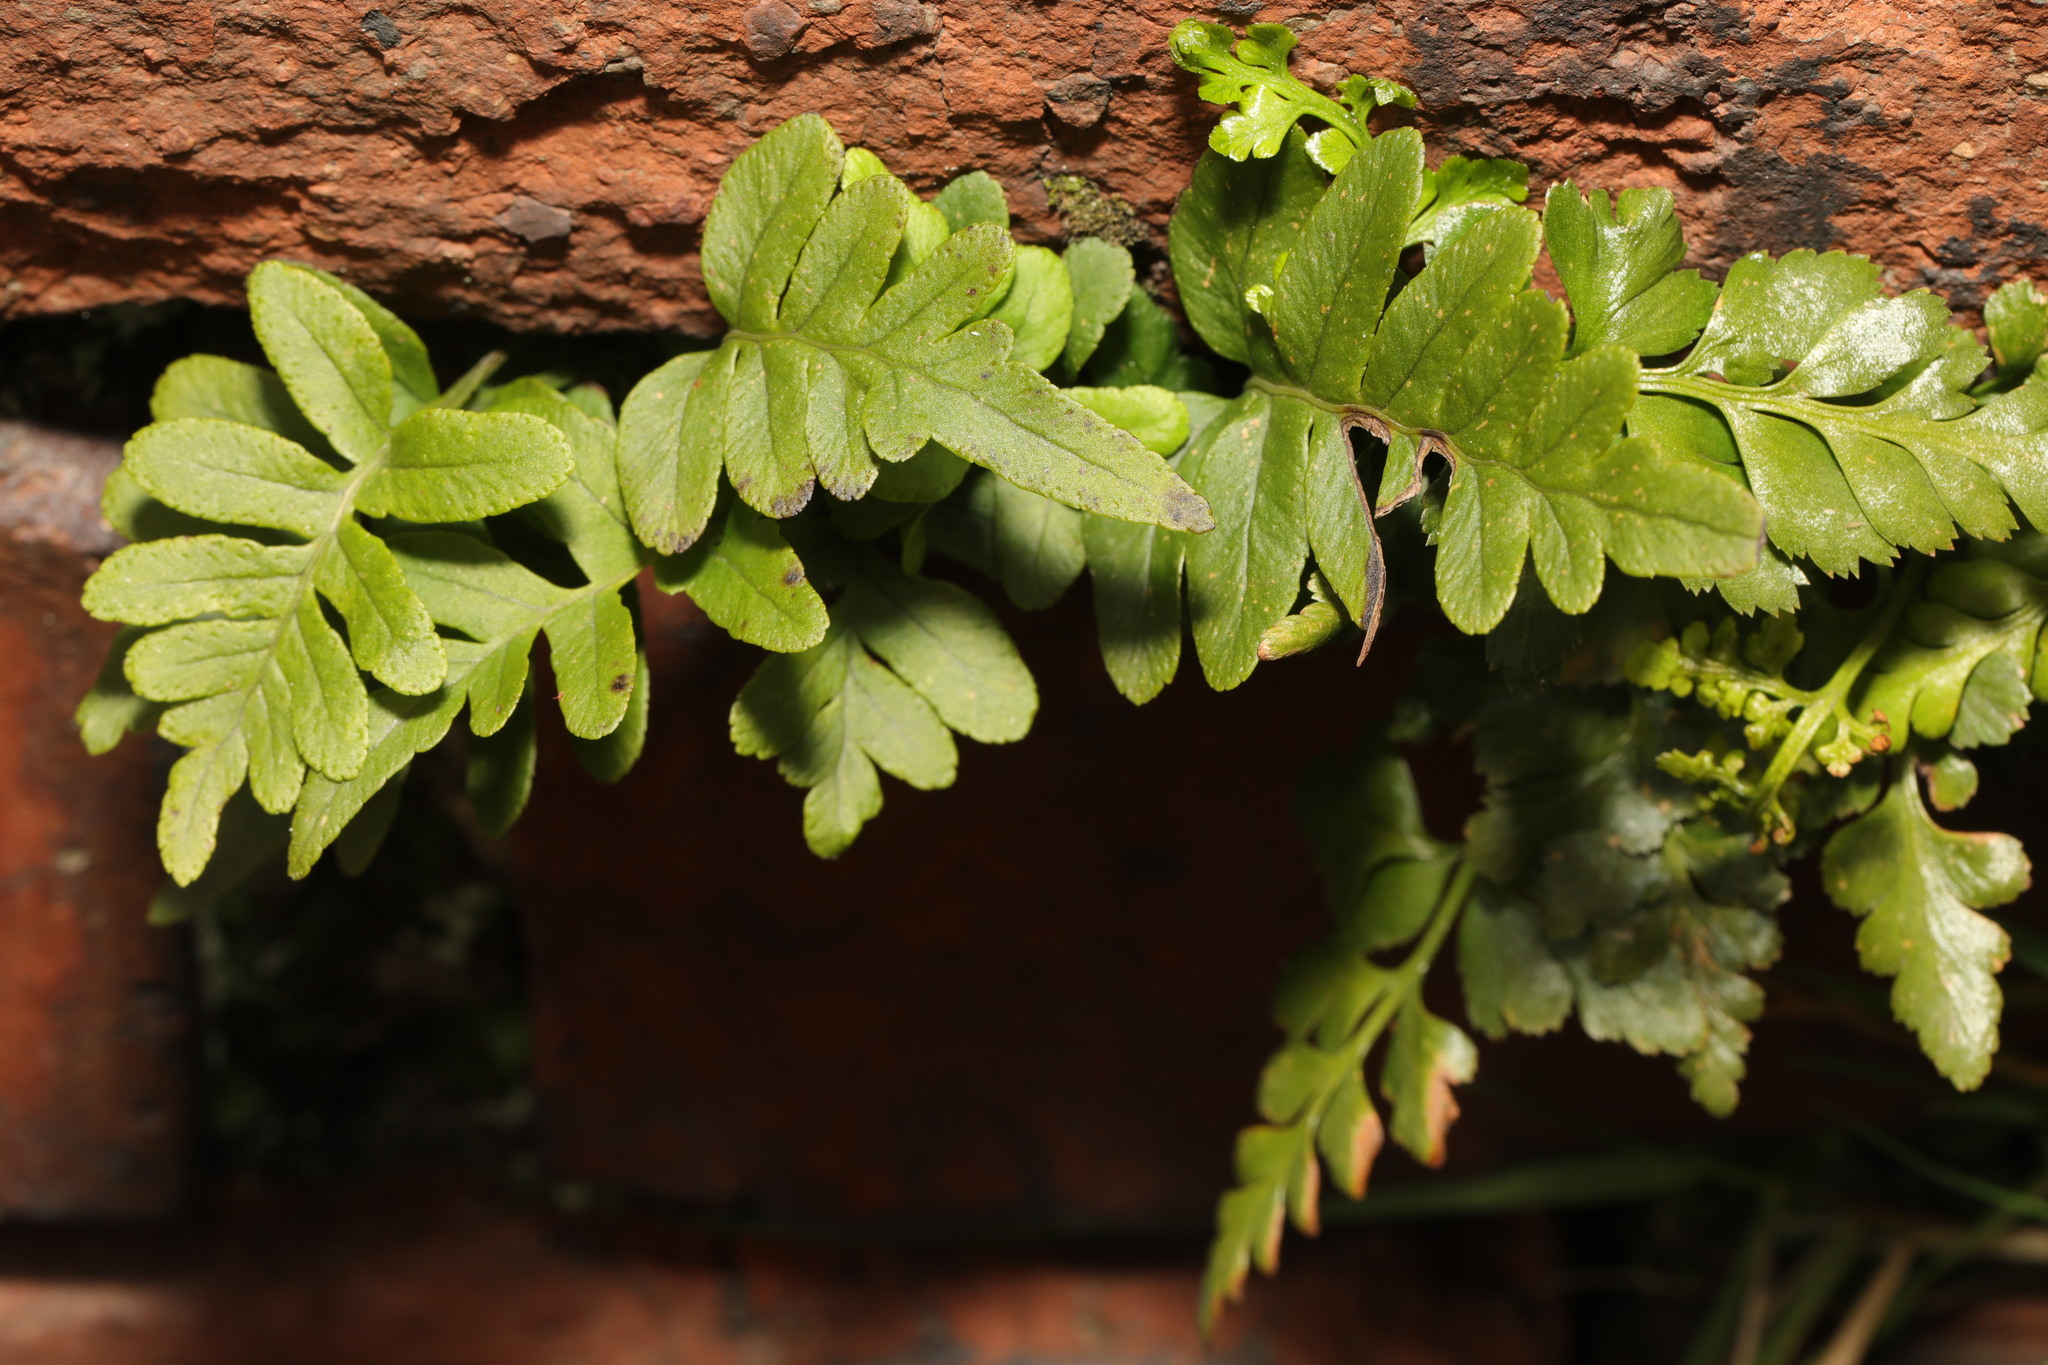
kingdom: Plantae
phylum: Tracheophyta
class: Polypodiopsida
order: Polypodiales
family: Polypodiaceae
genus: Polypodium
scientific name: Polypodium vulgare
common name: Common polypody
